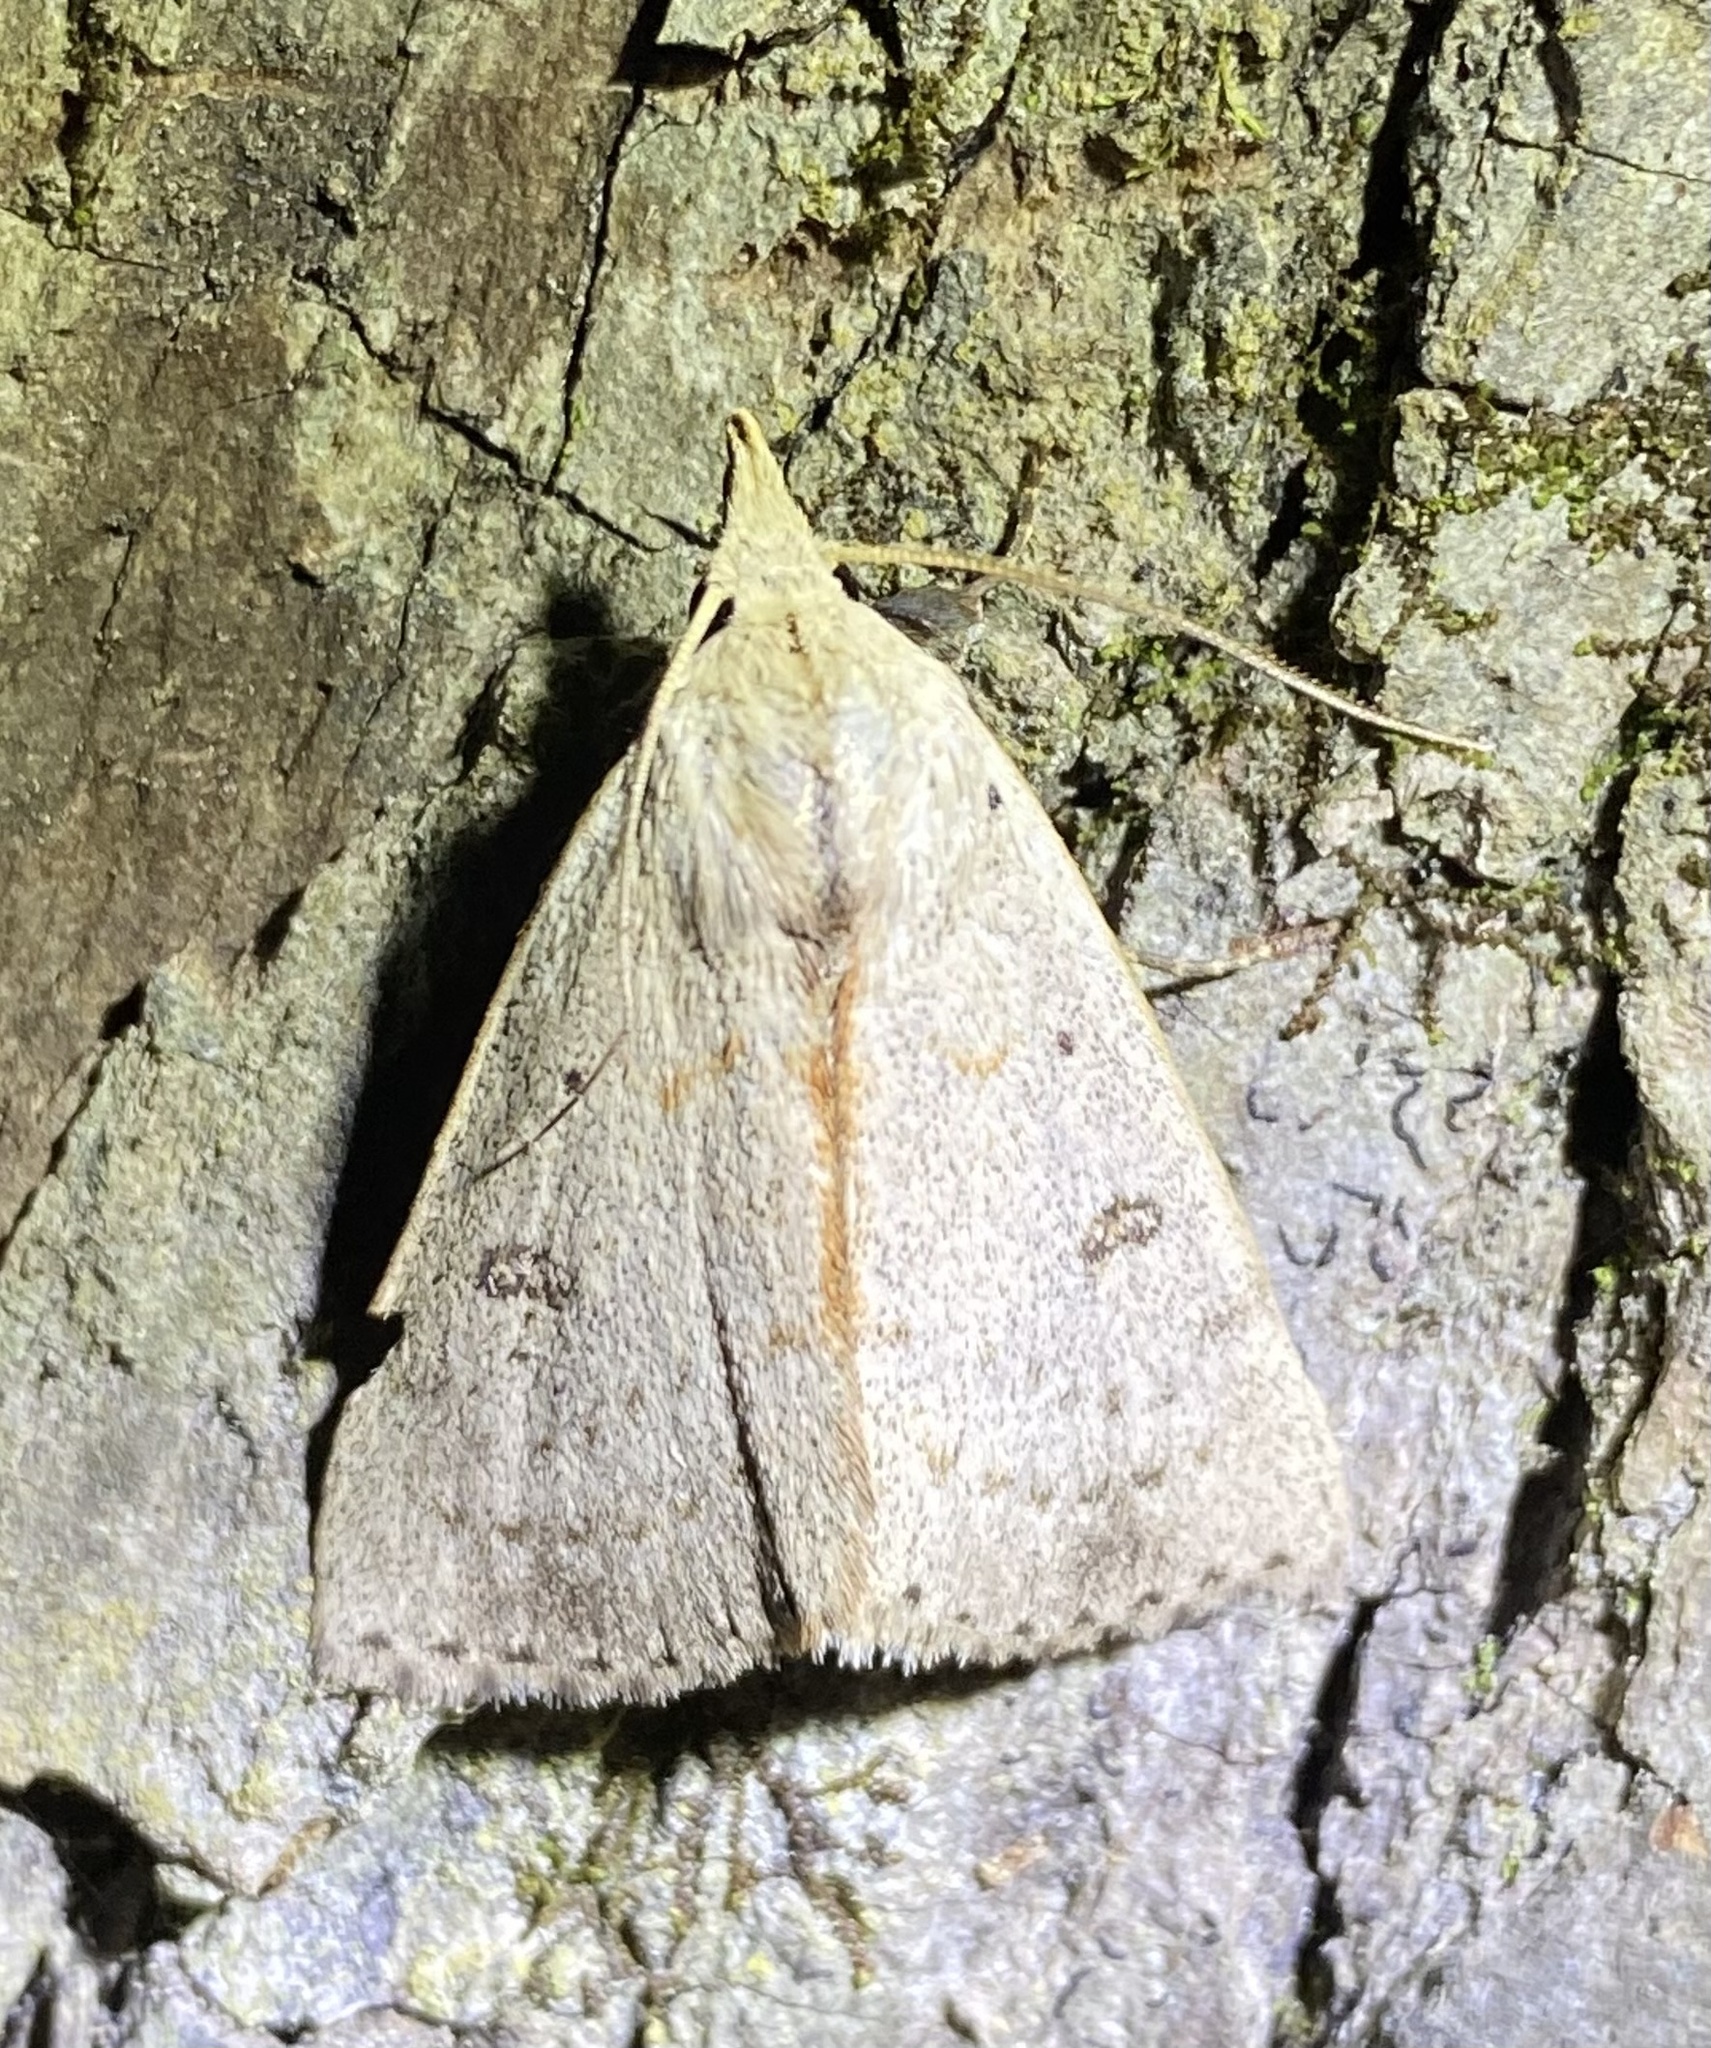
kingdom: Animalia
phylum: Arthropoda
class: Insecta
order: Lepidoptera
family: Erebidae
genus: Scolecocampa
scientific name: Scolecocampa liburna
